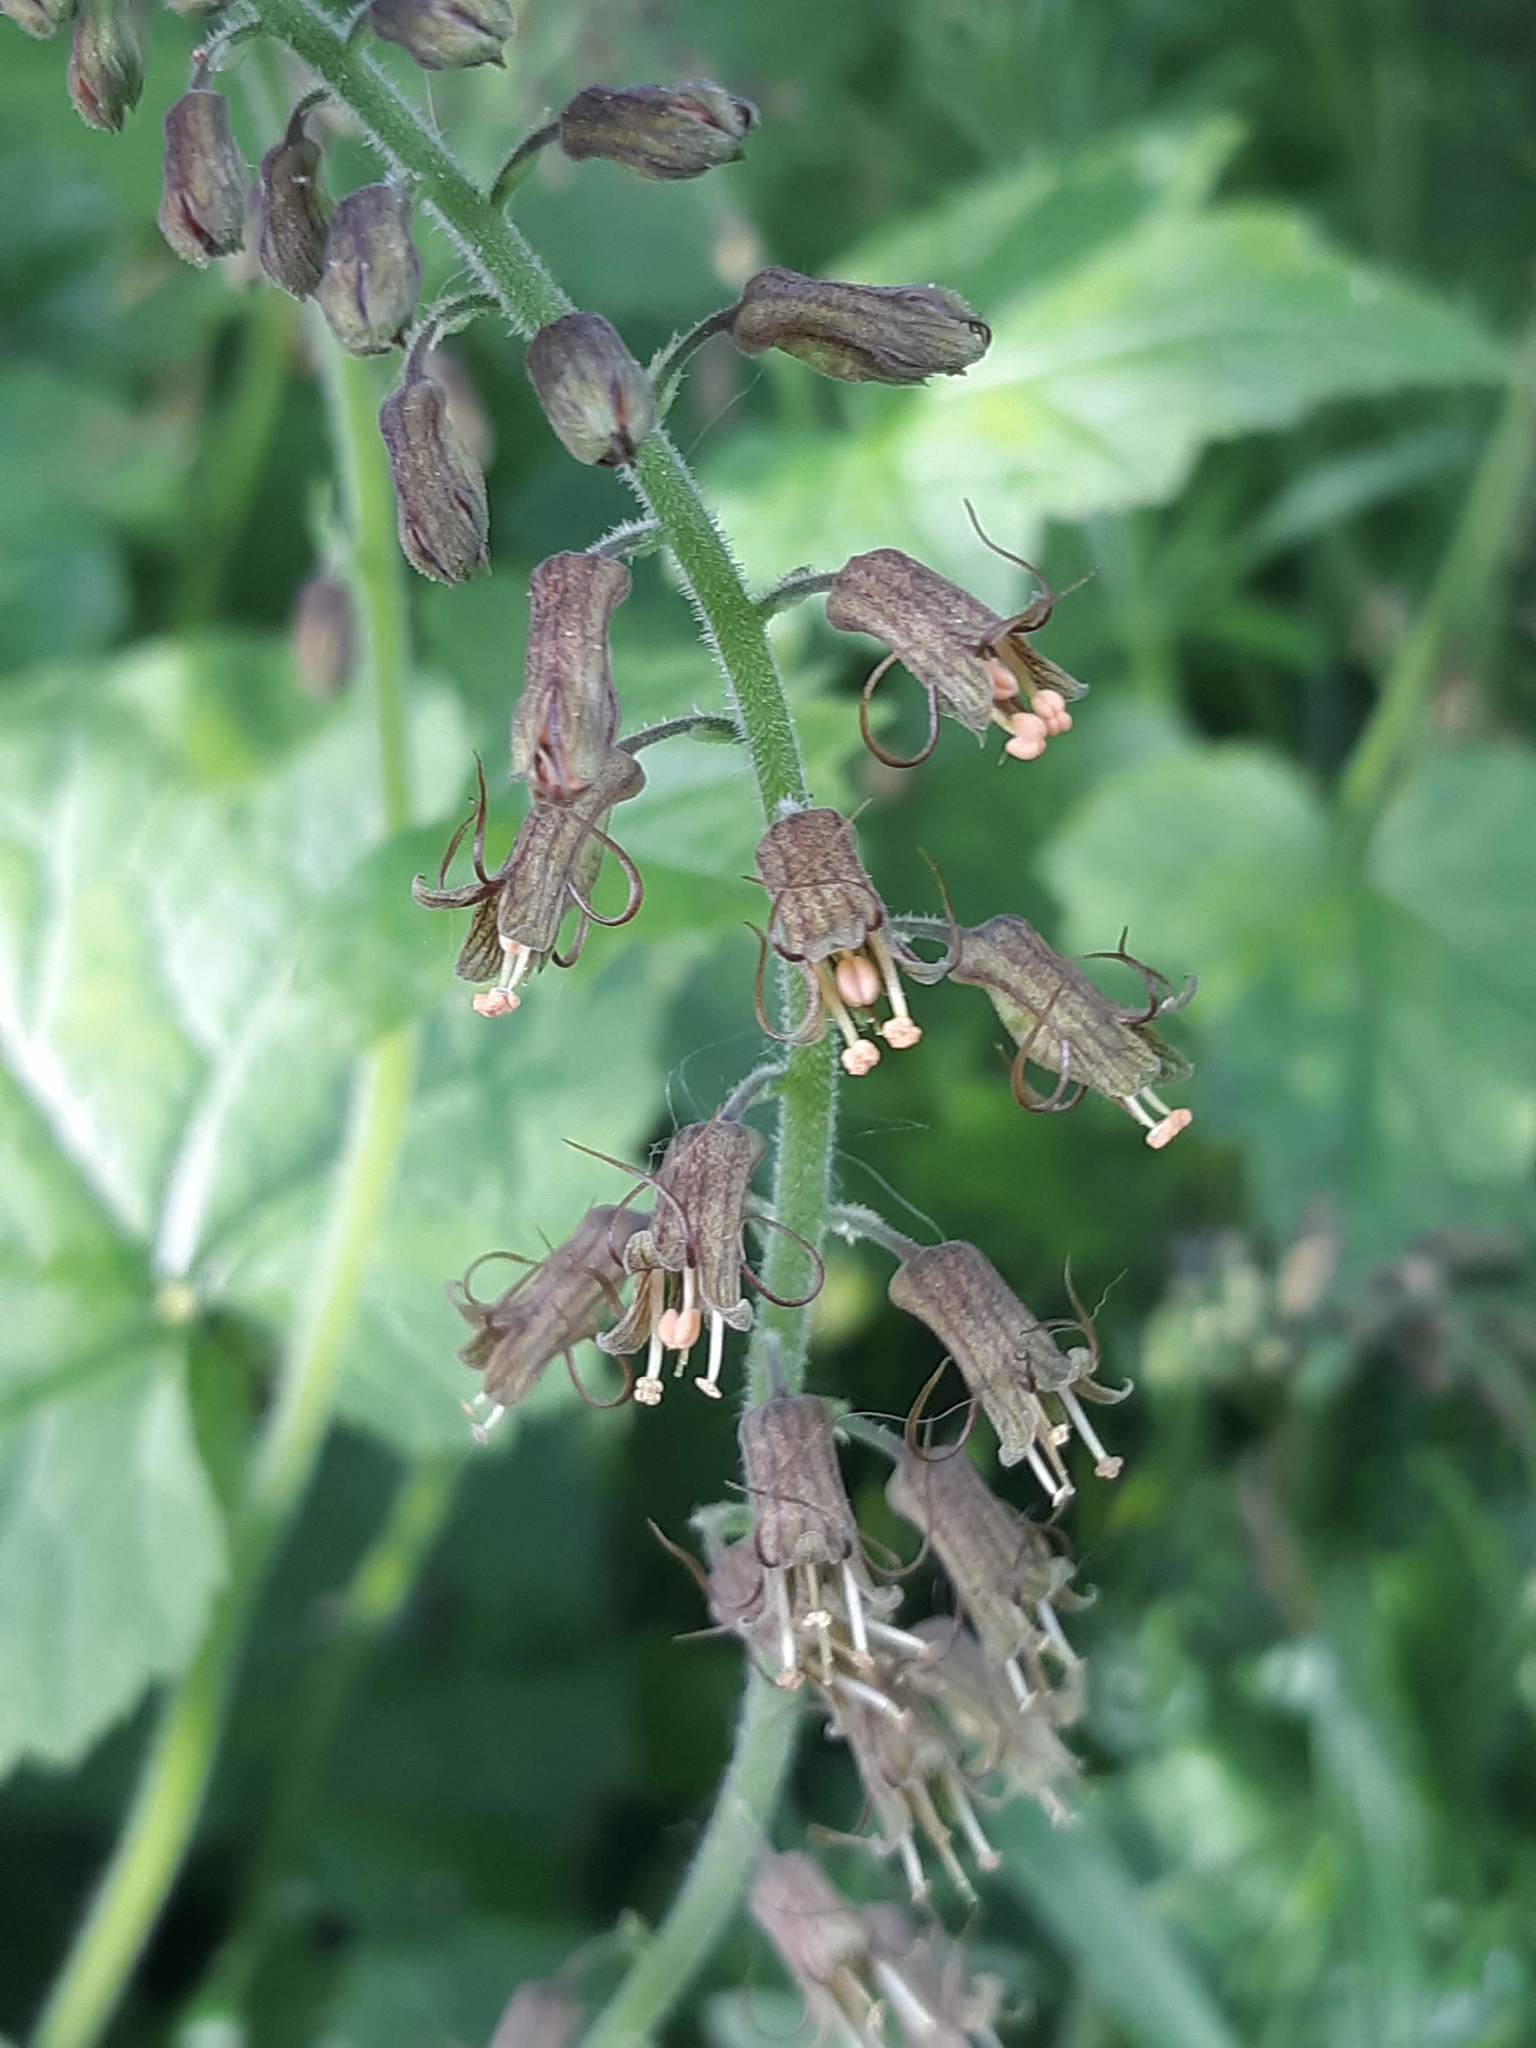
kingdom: Plantae
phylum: Tracheophyta
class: Magnoliopsida
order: Saxifragales
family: Saxifragaceae
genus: Tolmiea
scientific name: Tolmiea menziesii
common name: Pick-a-back-plant
